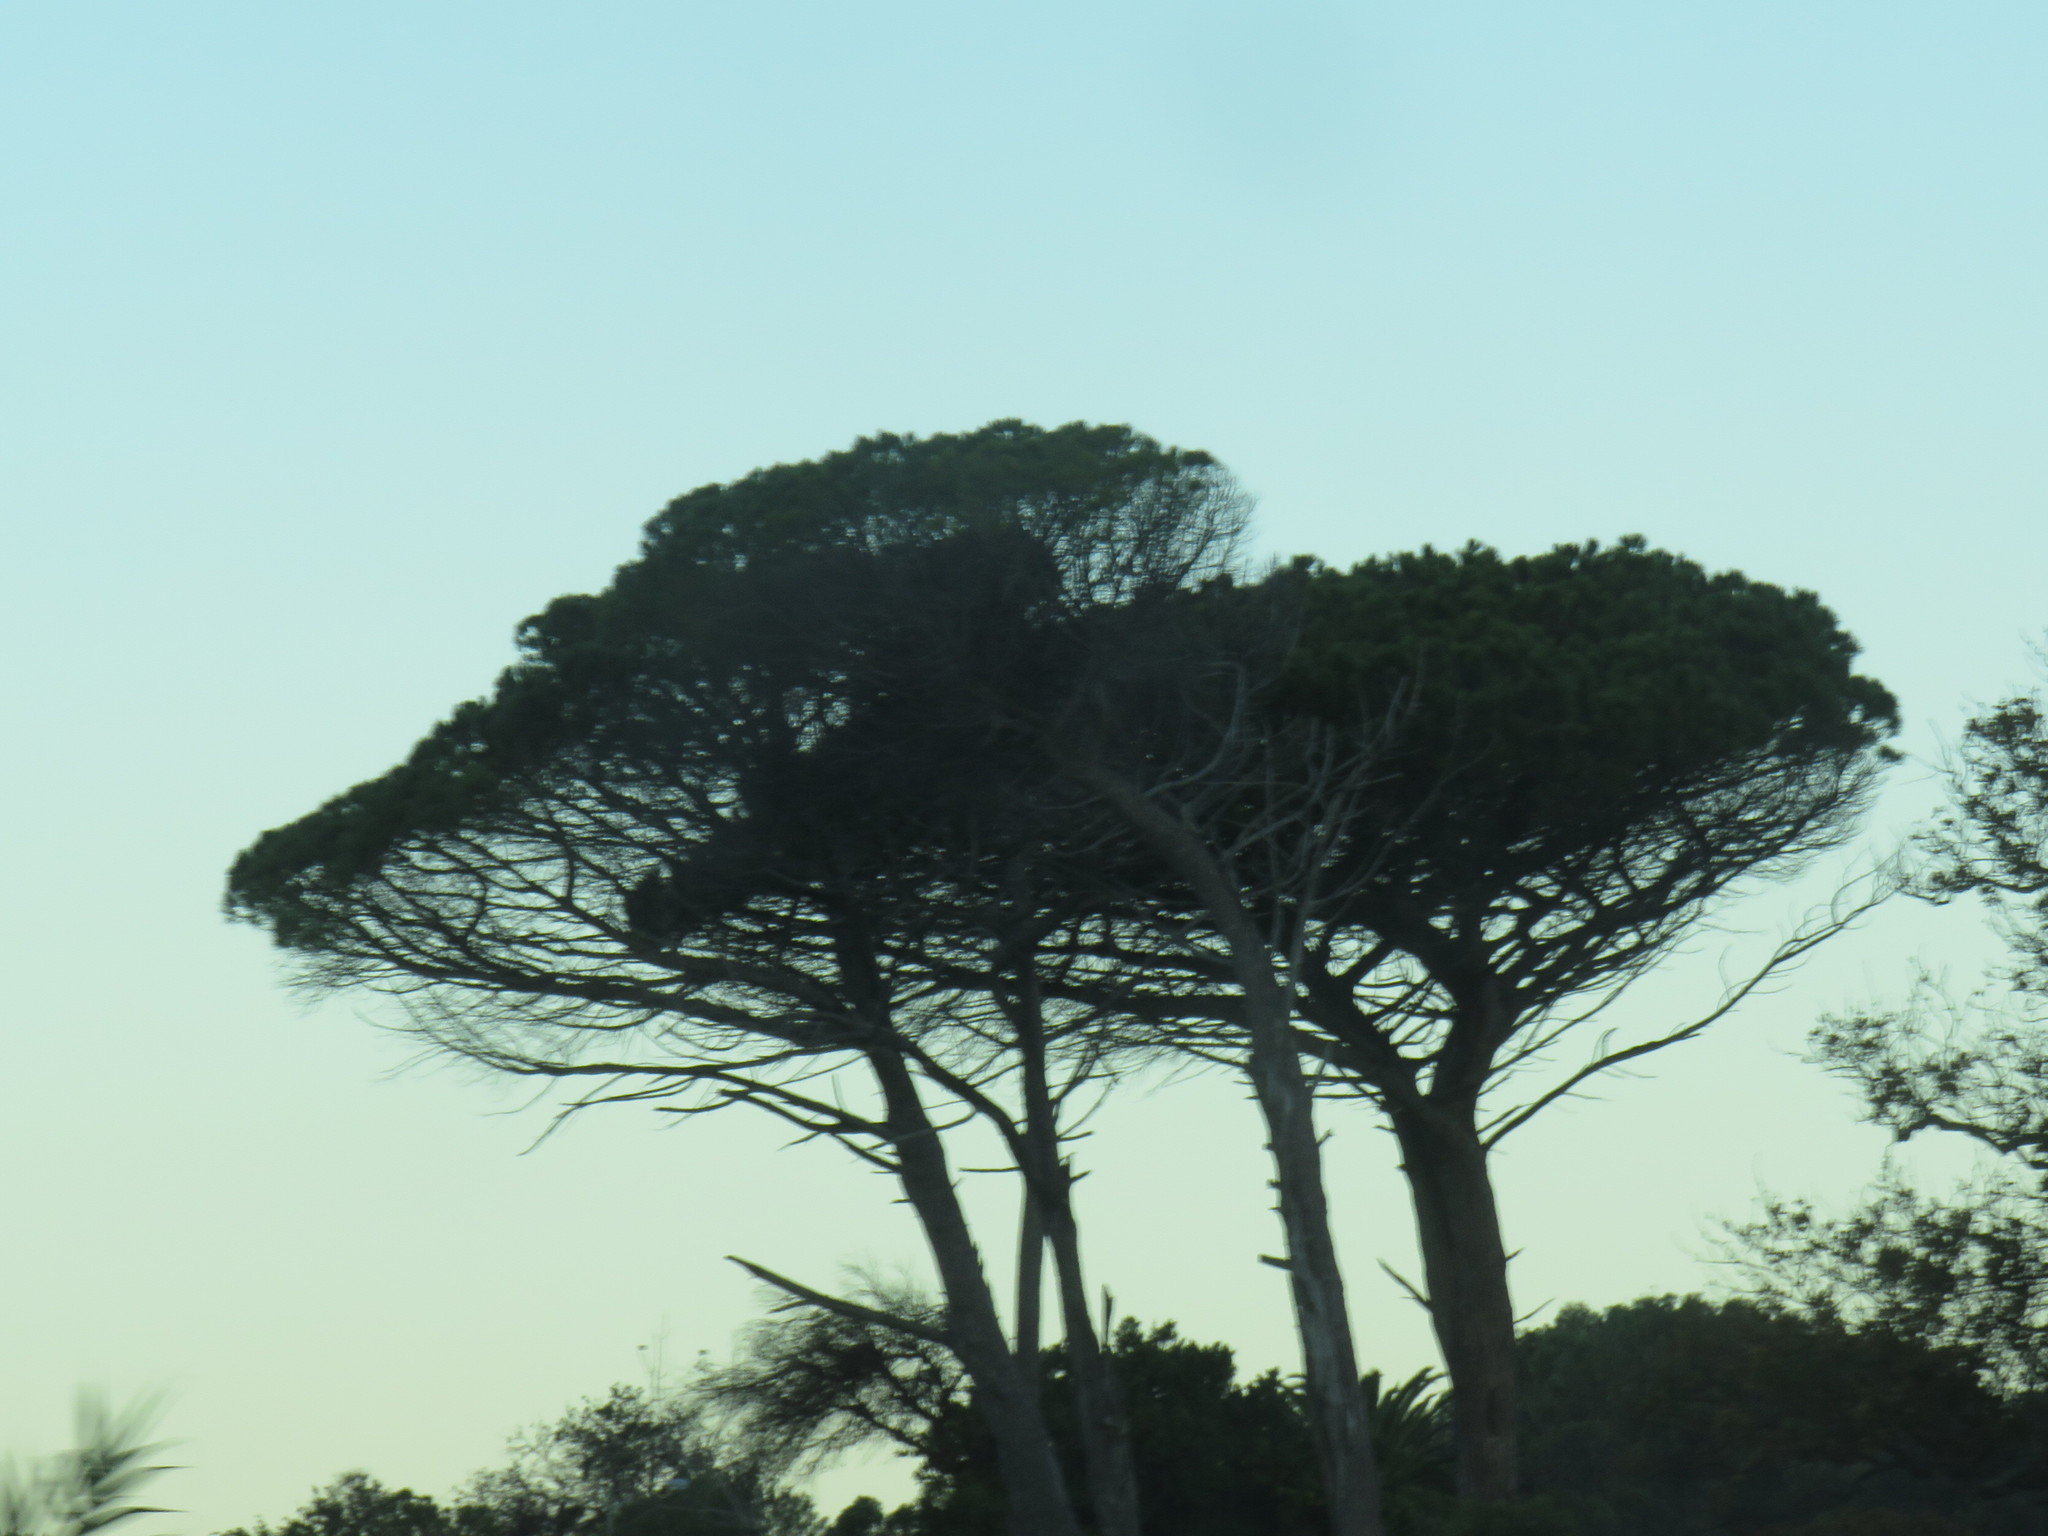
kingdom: Plantae
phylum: Tracheophyta
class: Pinopsida
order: Pinales
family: Pinaceae
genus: Pinus
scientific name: Pinus pinea
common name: Italian stone pine
